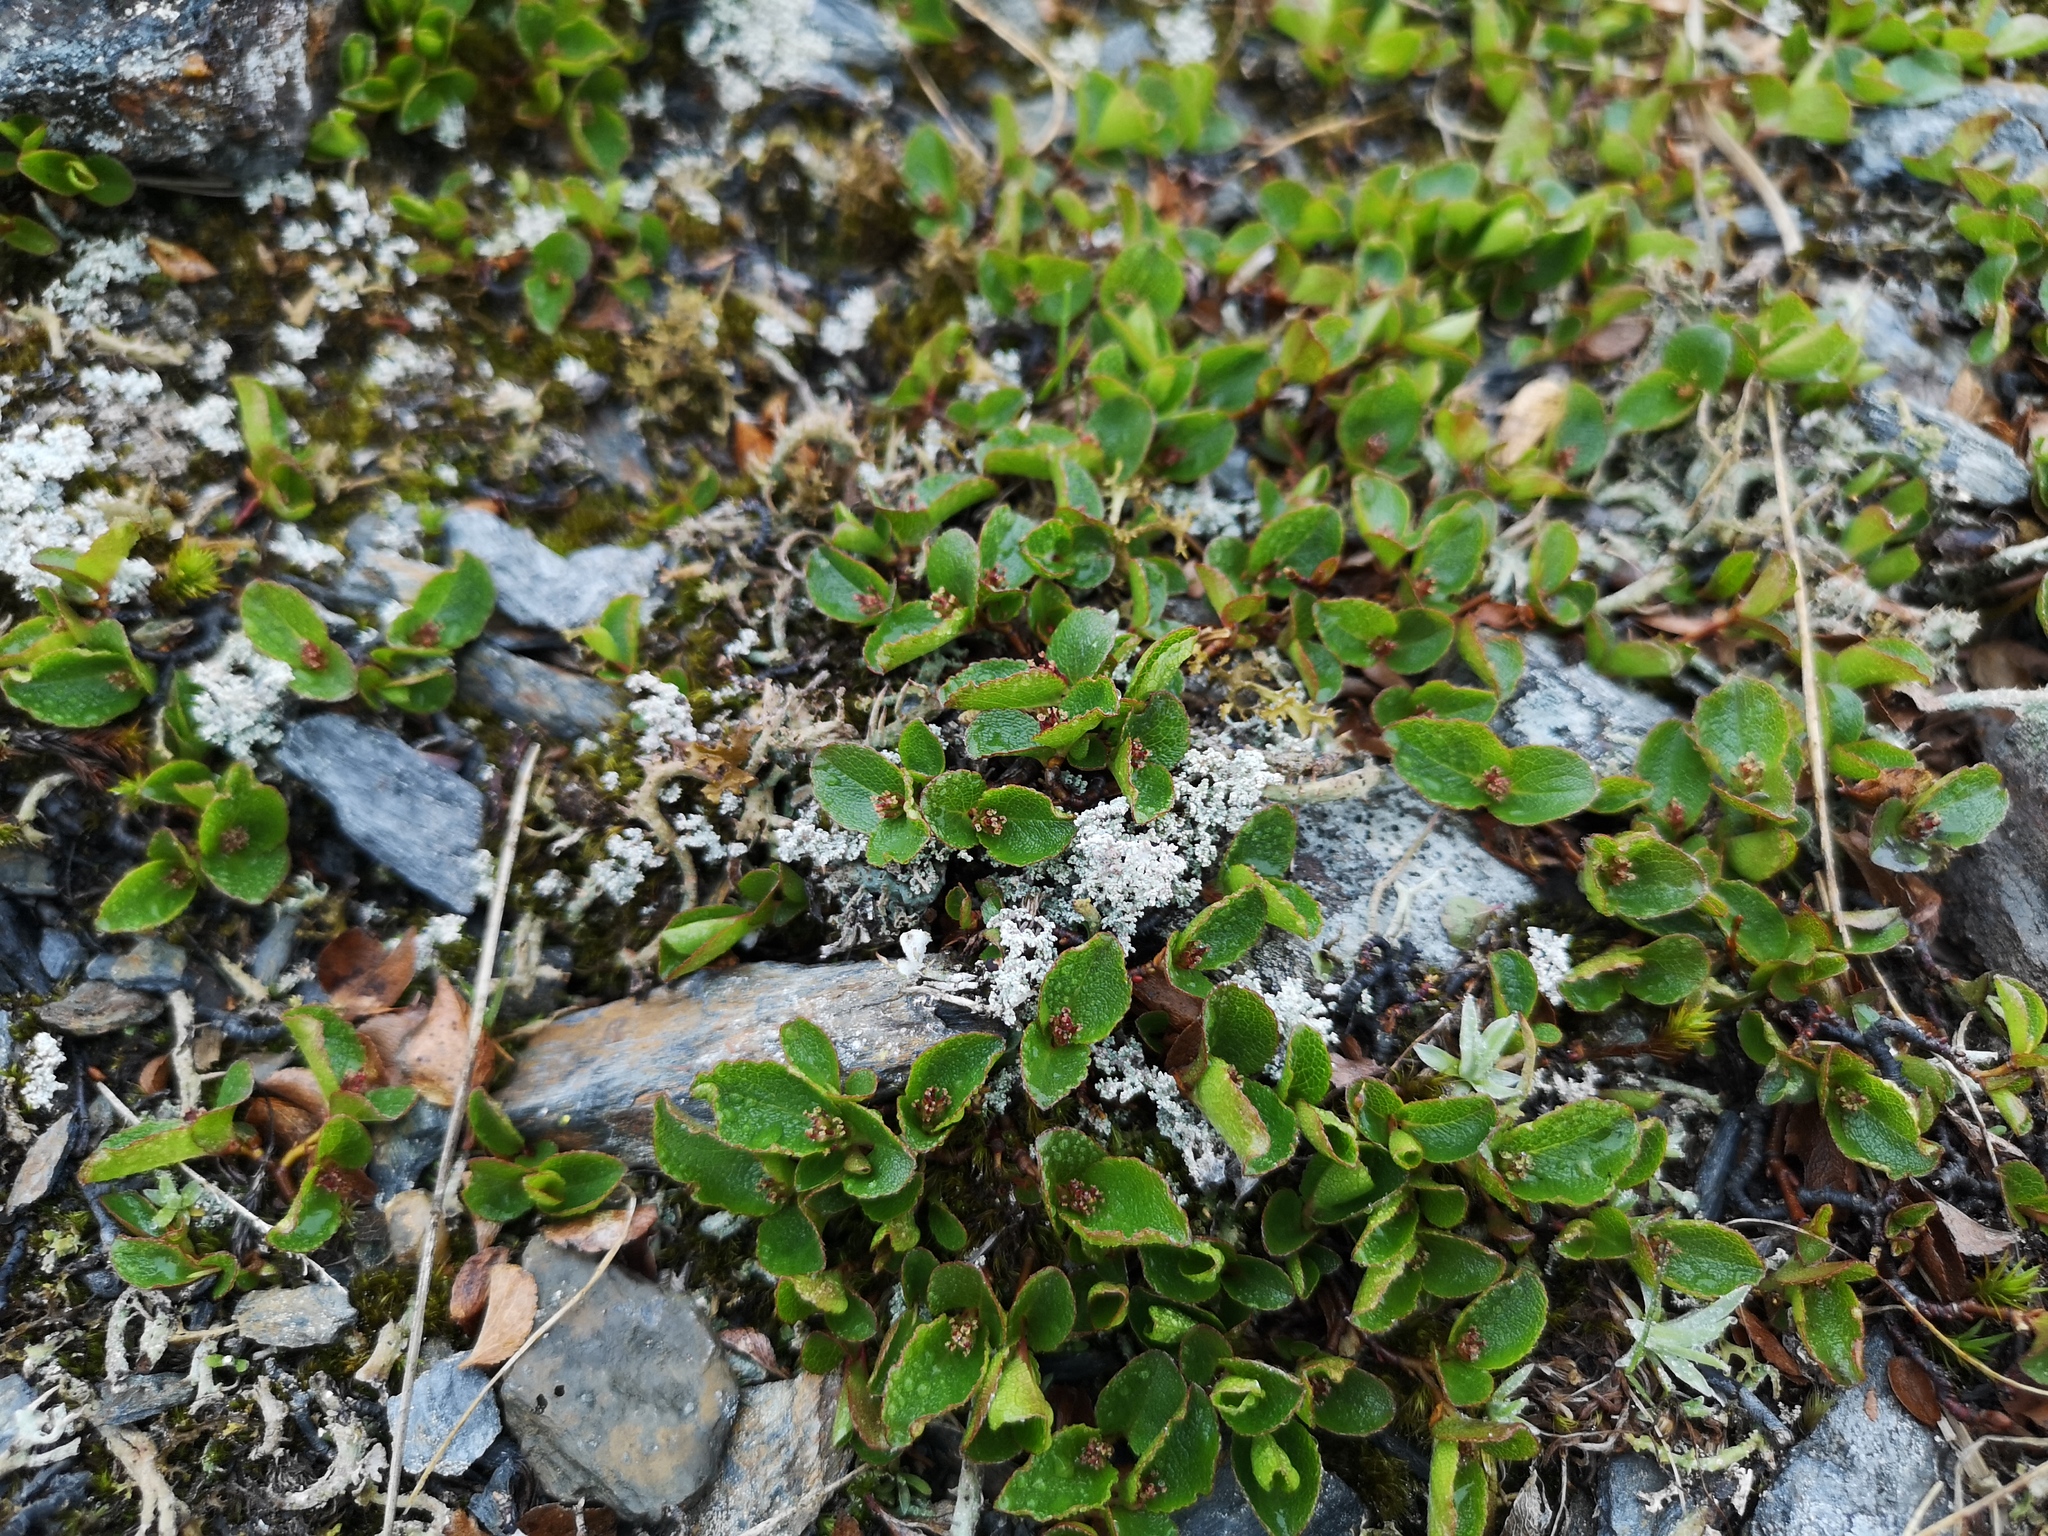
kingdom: Plantae
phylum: Tracheophyta
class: Magnoliopsida
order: Malpighiales
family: Salicaceae
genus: Salix
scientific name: Salix herbacea
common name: Dwarf willow
